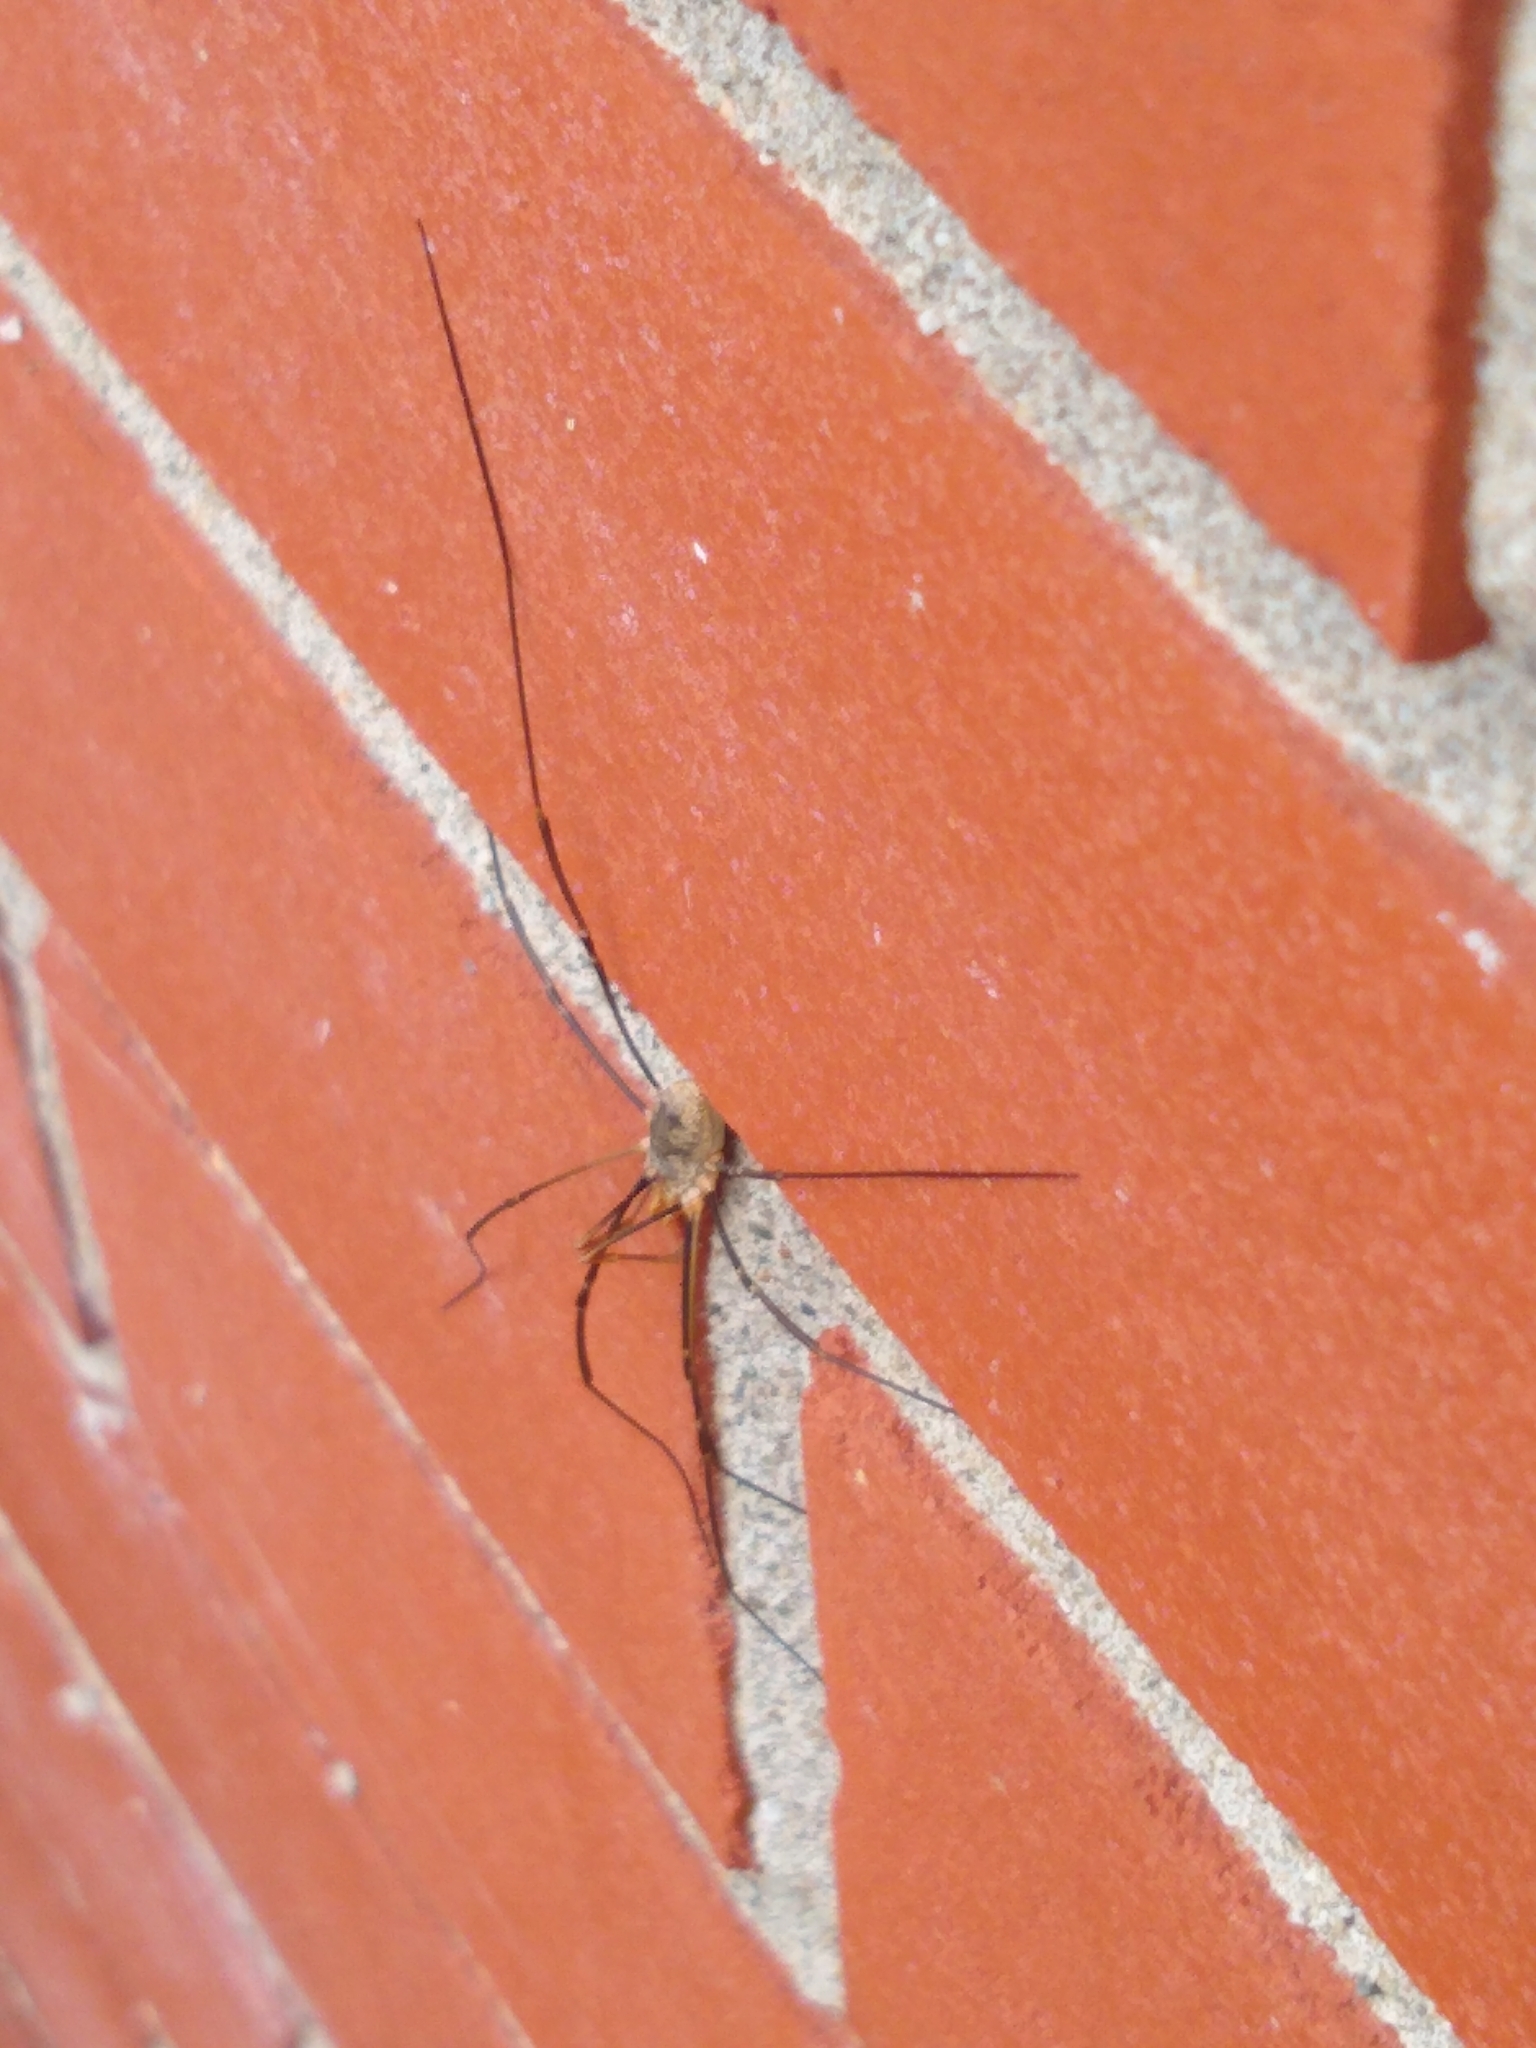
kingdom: Animalia
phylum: Arthropoda
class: Arachnida
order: Opiliones
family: Phalangiidae
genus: Phalangium
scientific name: Phalangium opilio
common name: Daddy longleg
